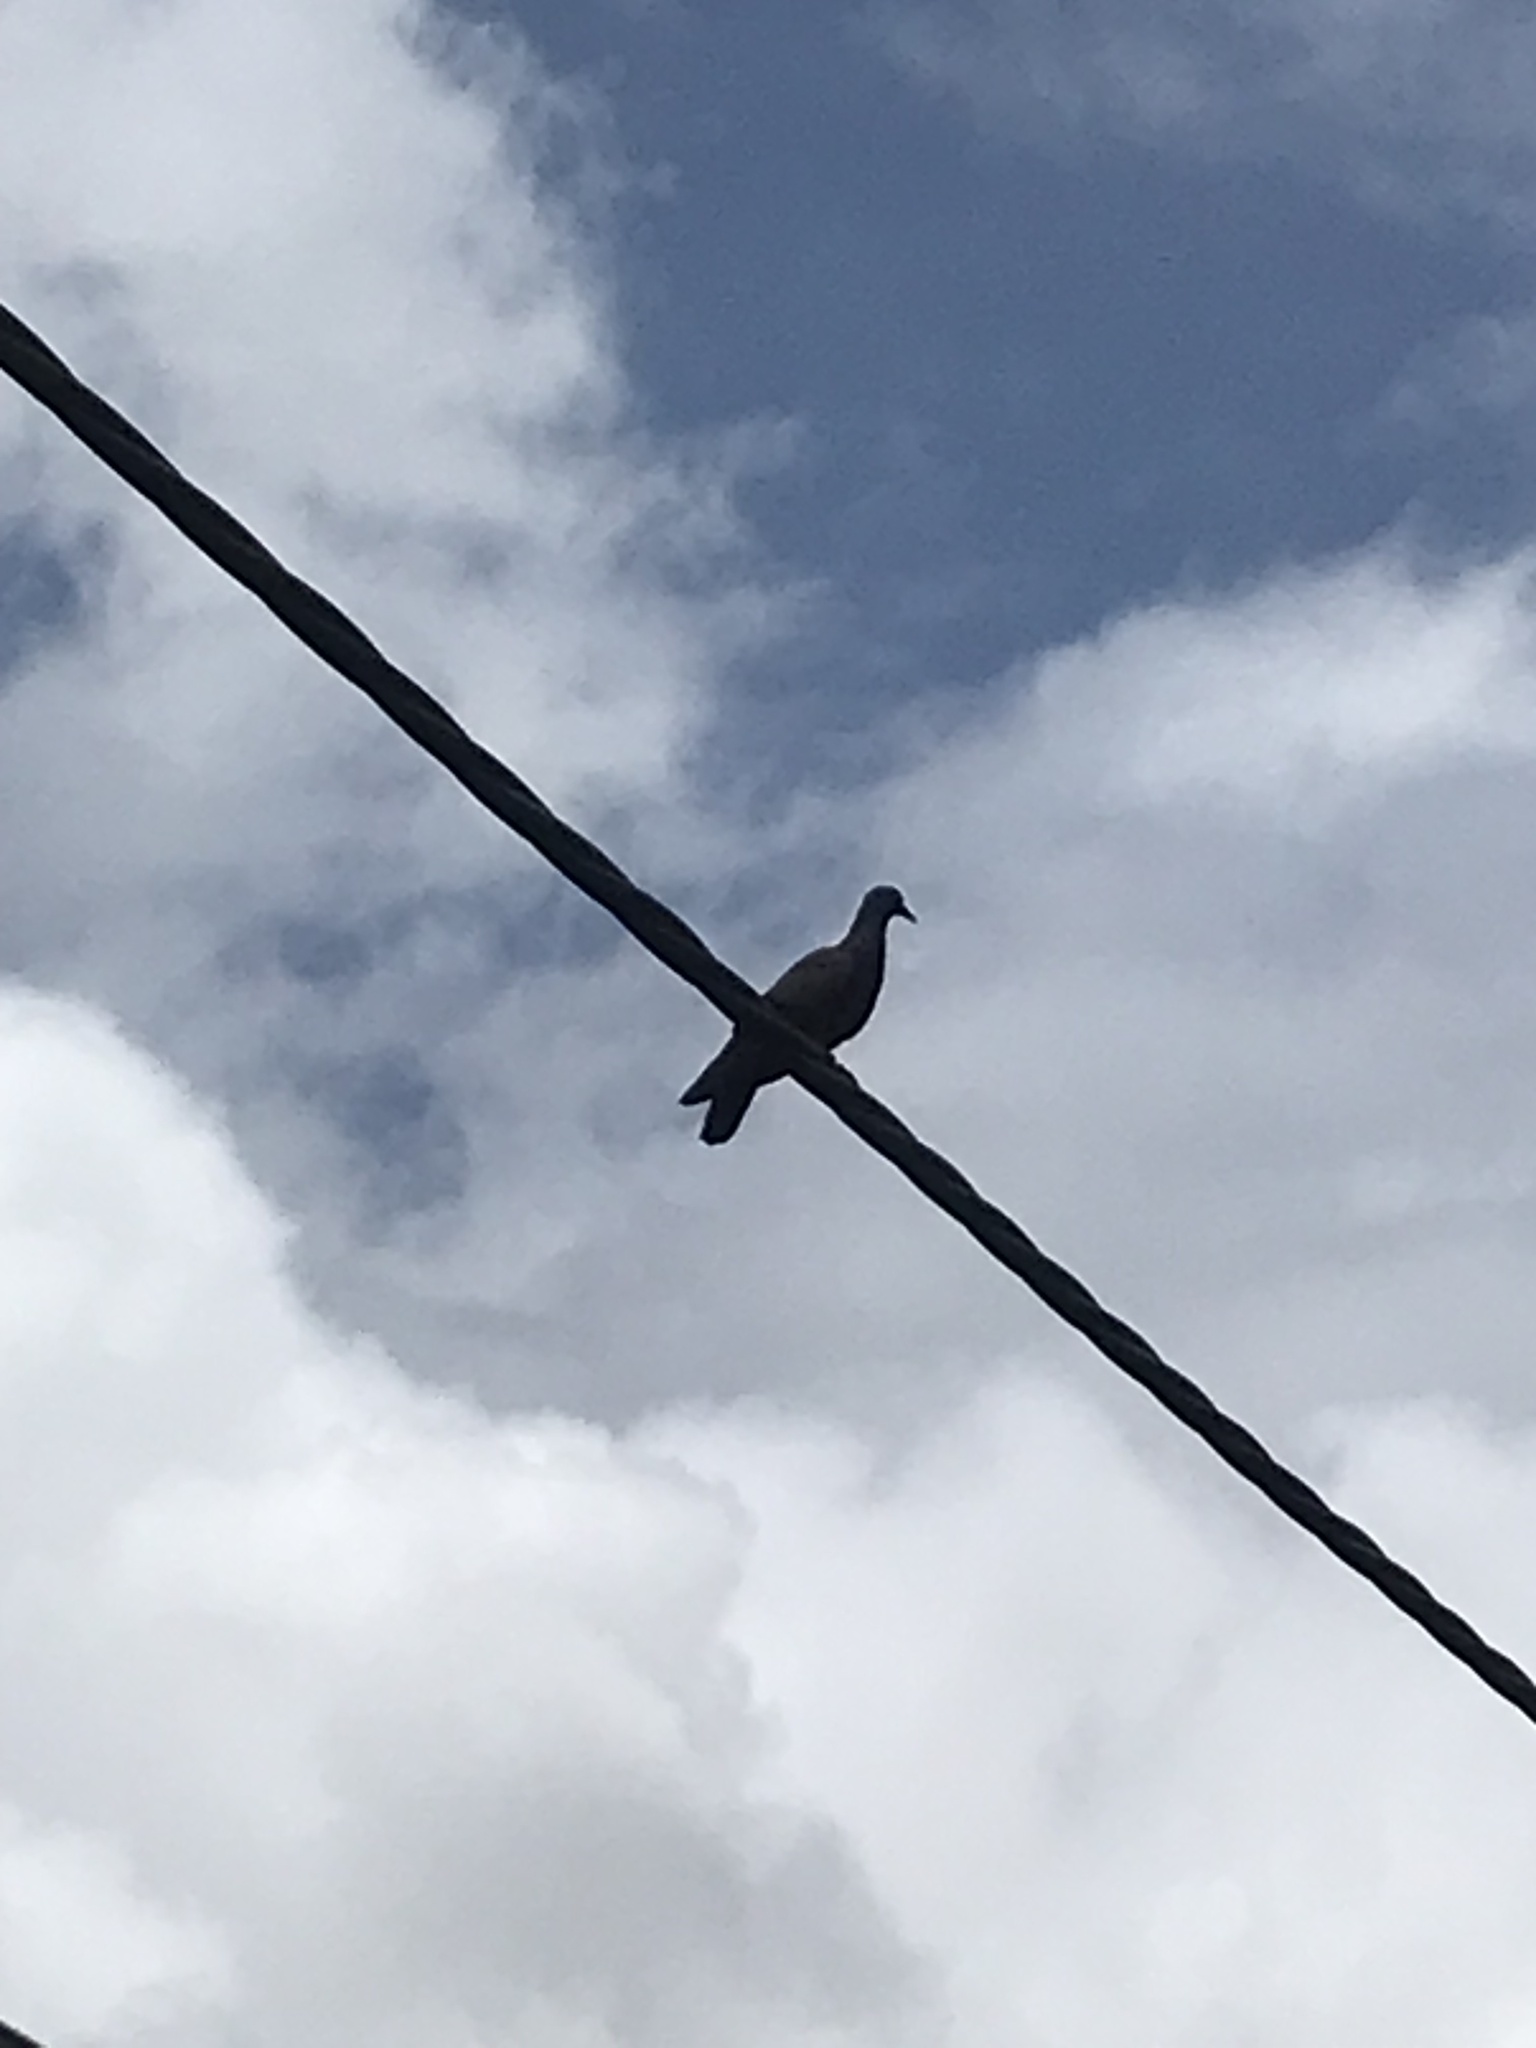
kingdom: Animalia
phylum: Chordata
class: Aves
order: Columbiformes
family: Columbidae
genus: Columba
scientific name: Columba livia
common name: Rock pigeon
